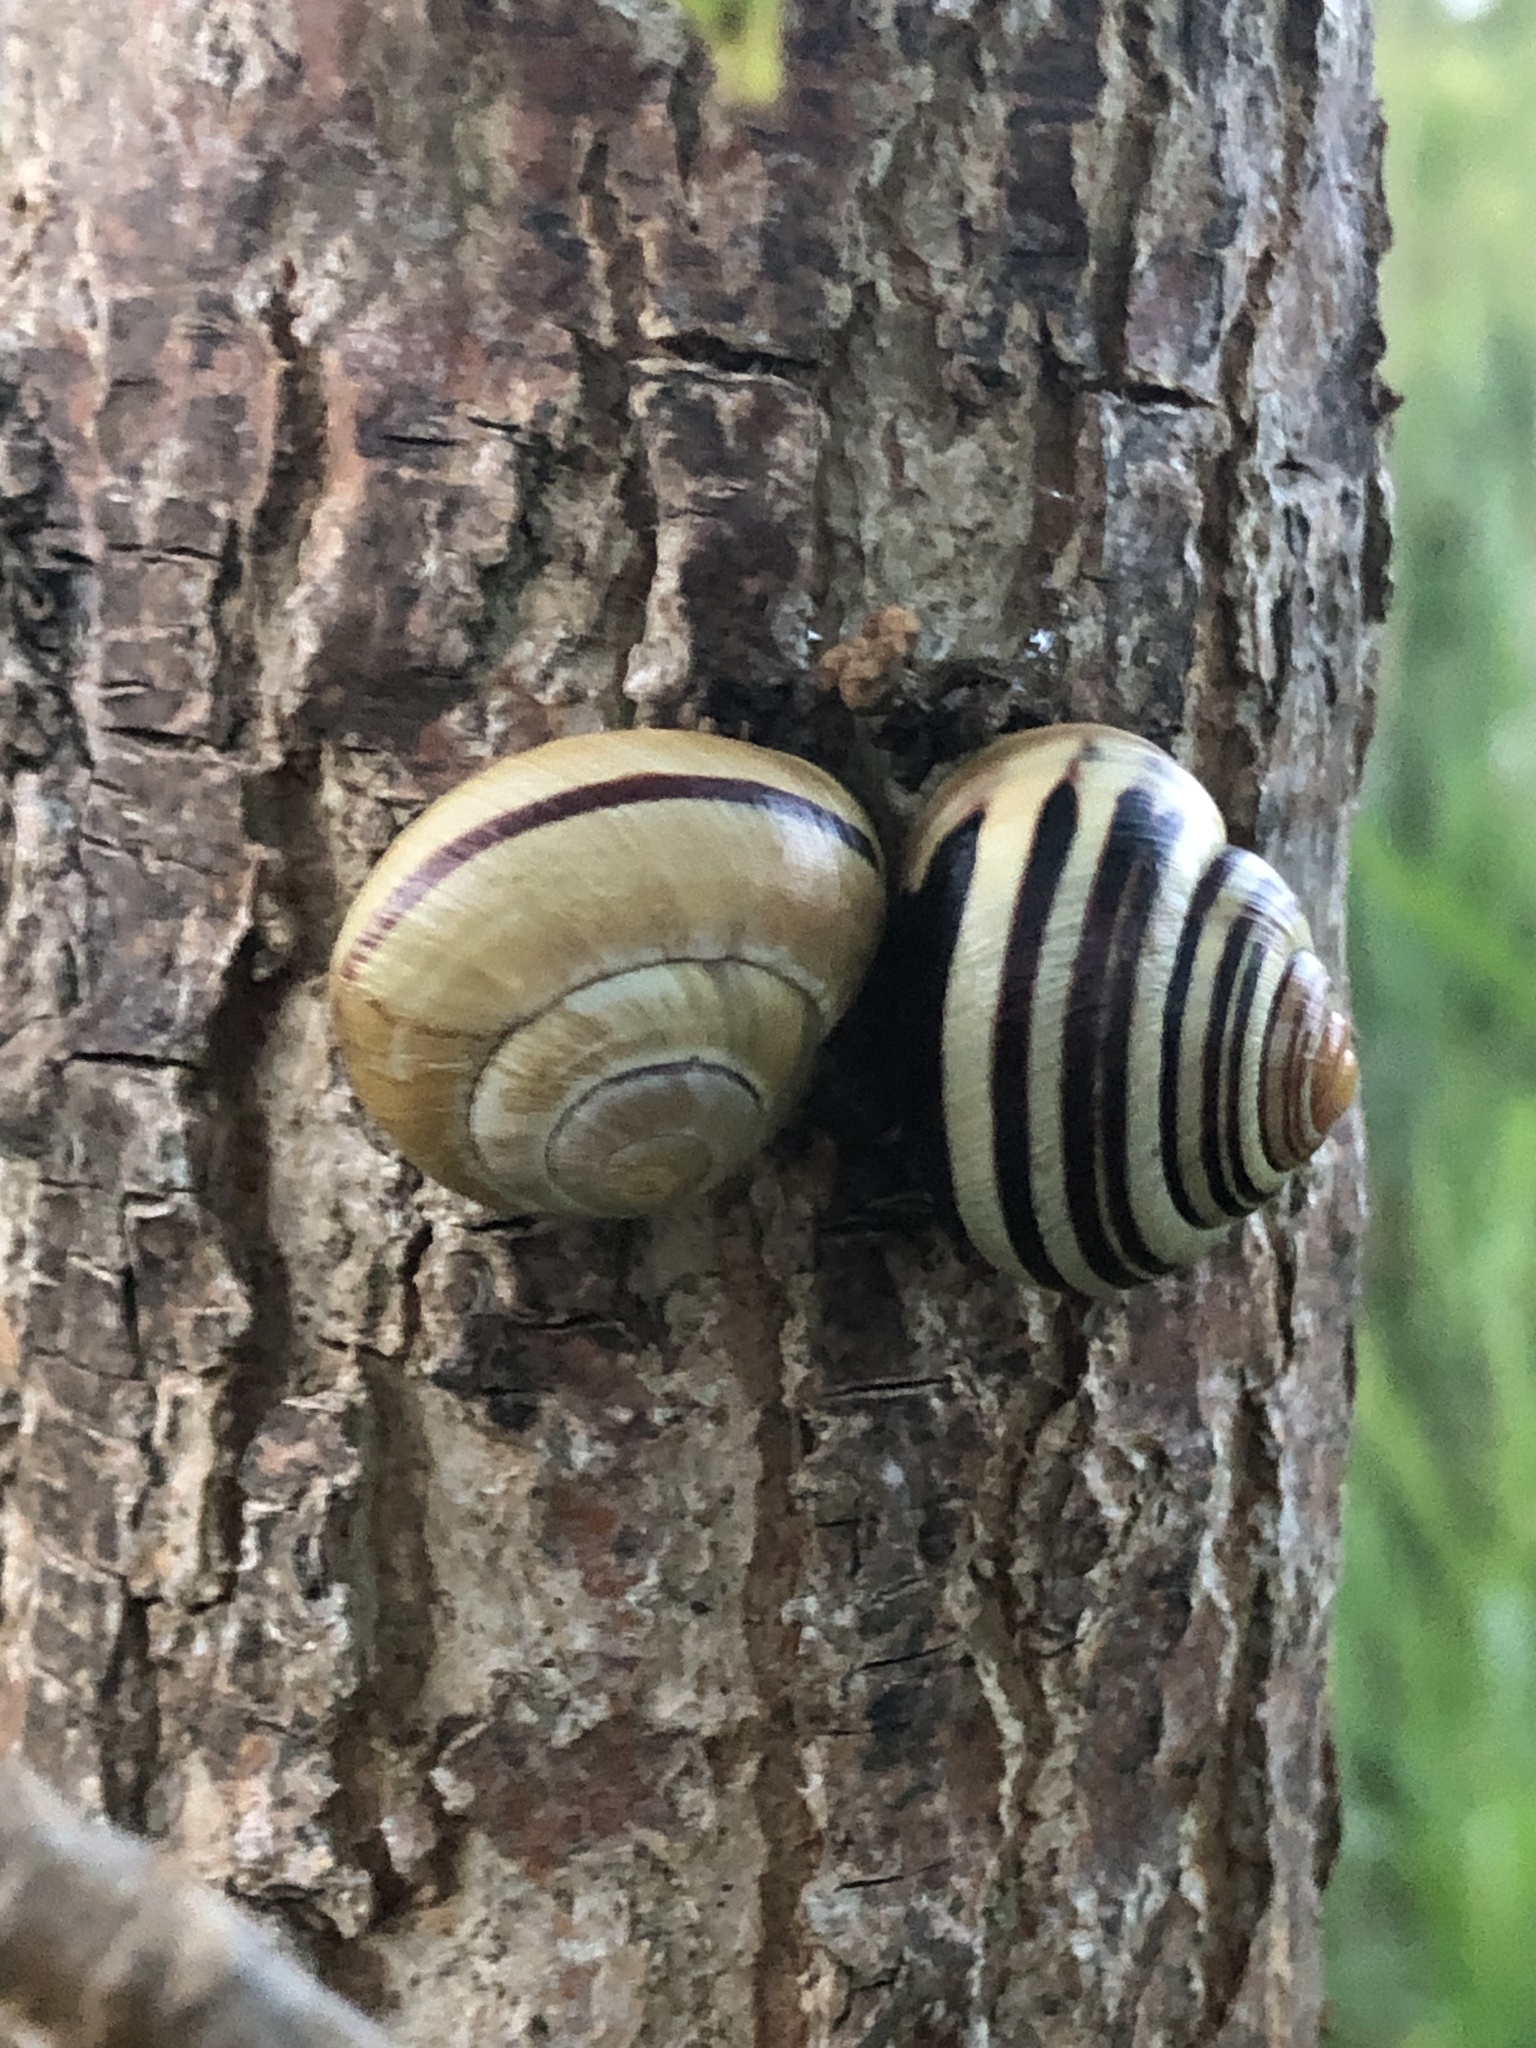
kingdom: Animalia
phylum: Mollusca
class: Gastropoda
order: Stylommatophora
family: Helicidae
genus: Cepaea
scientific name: Cepaea nemoralis
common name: Grovesnail
